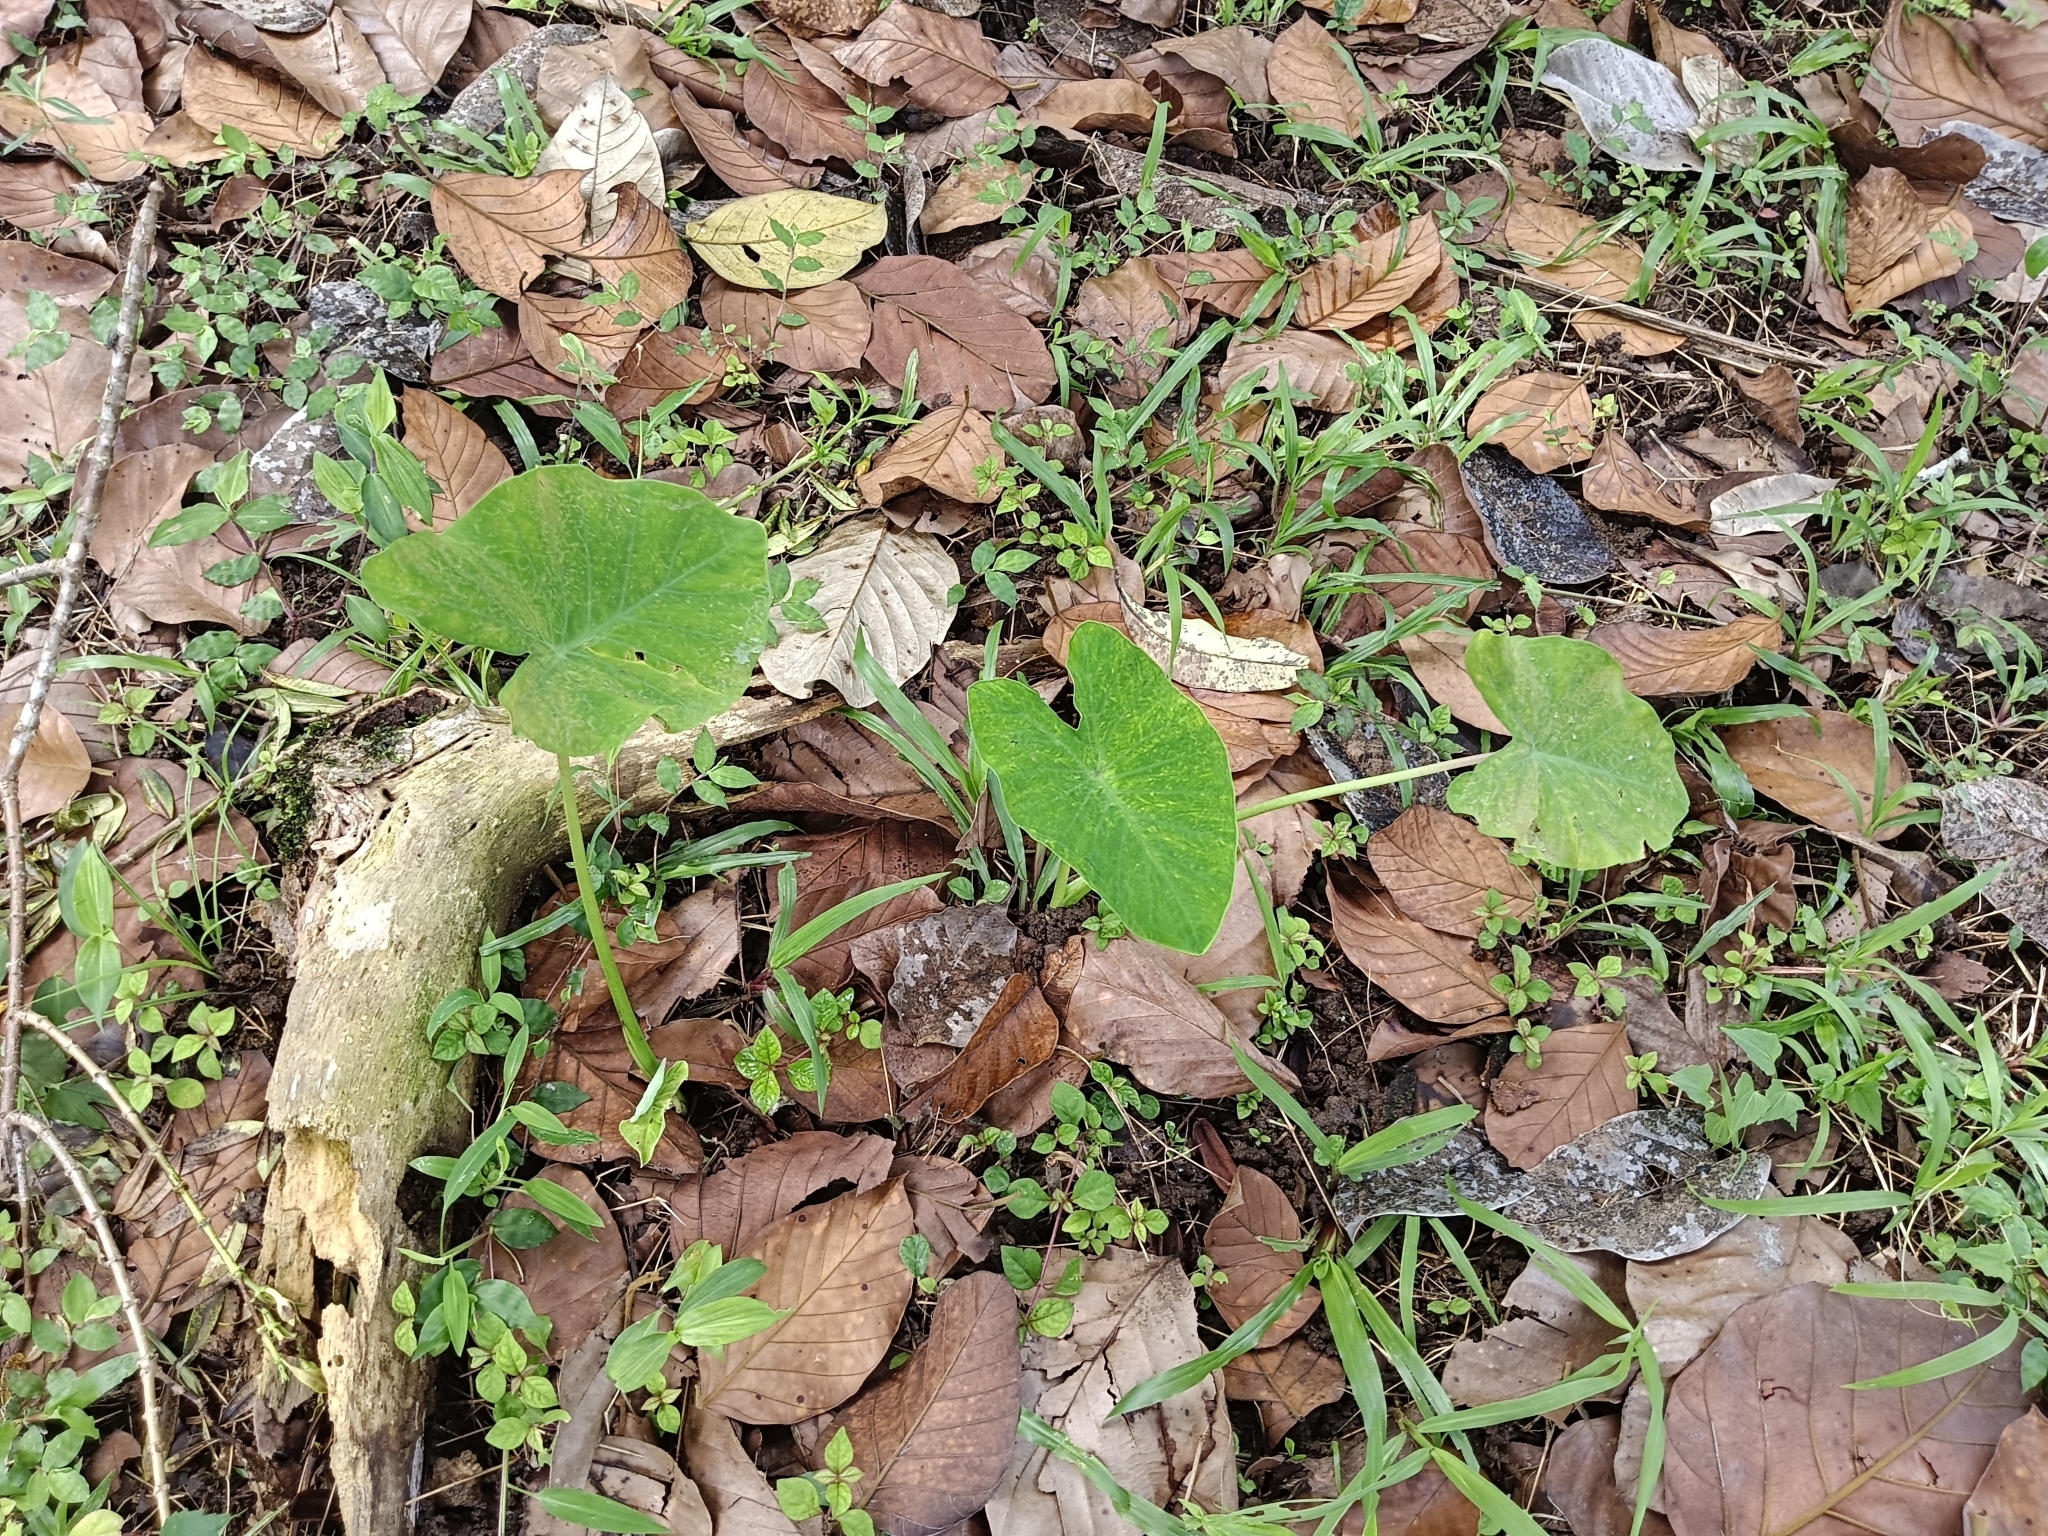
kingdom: Plantae
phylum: Tracheophyta
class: Liliopsida
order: Alismatales
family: Araceae
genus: Colocasia
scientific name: Colocasia esculenta
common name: Taro
